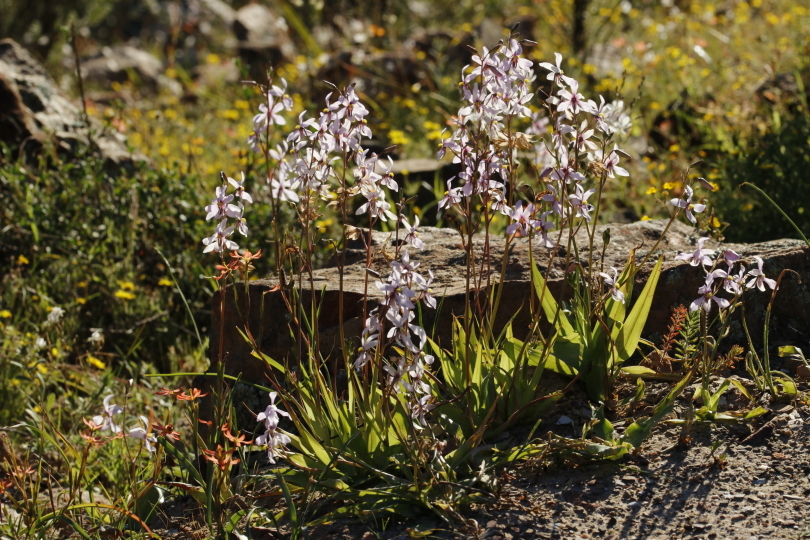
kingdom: Plantae
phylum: Tracheophyta
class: Liliopsida
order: Asparagales
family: Tecophilaeaceae
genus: Cyanella
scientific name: Cyanella orchidiformis
